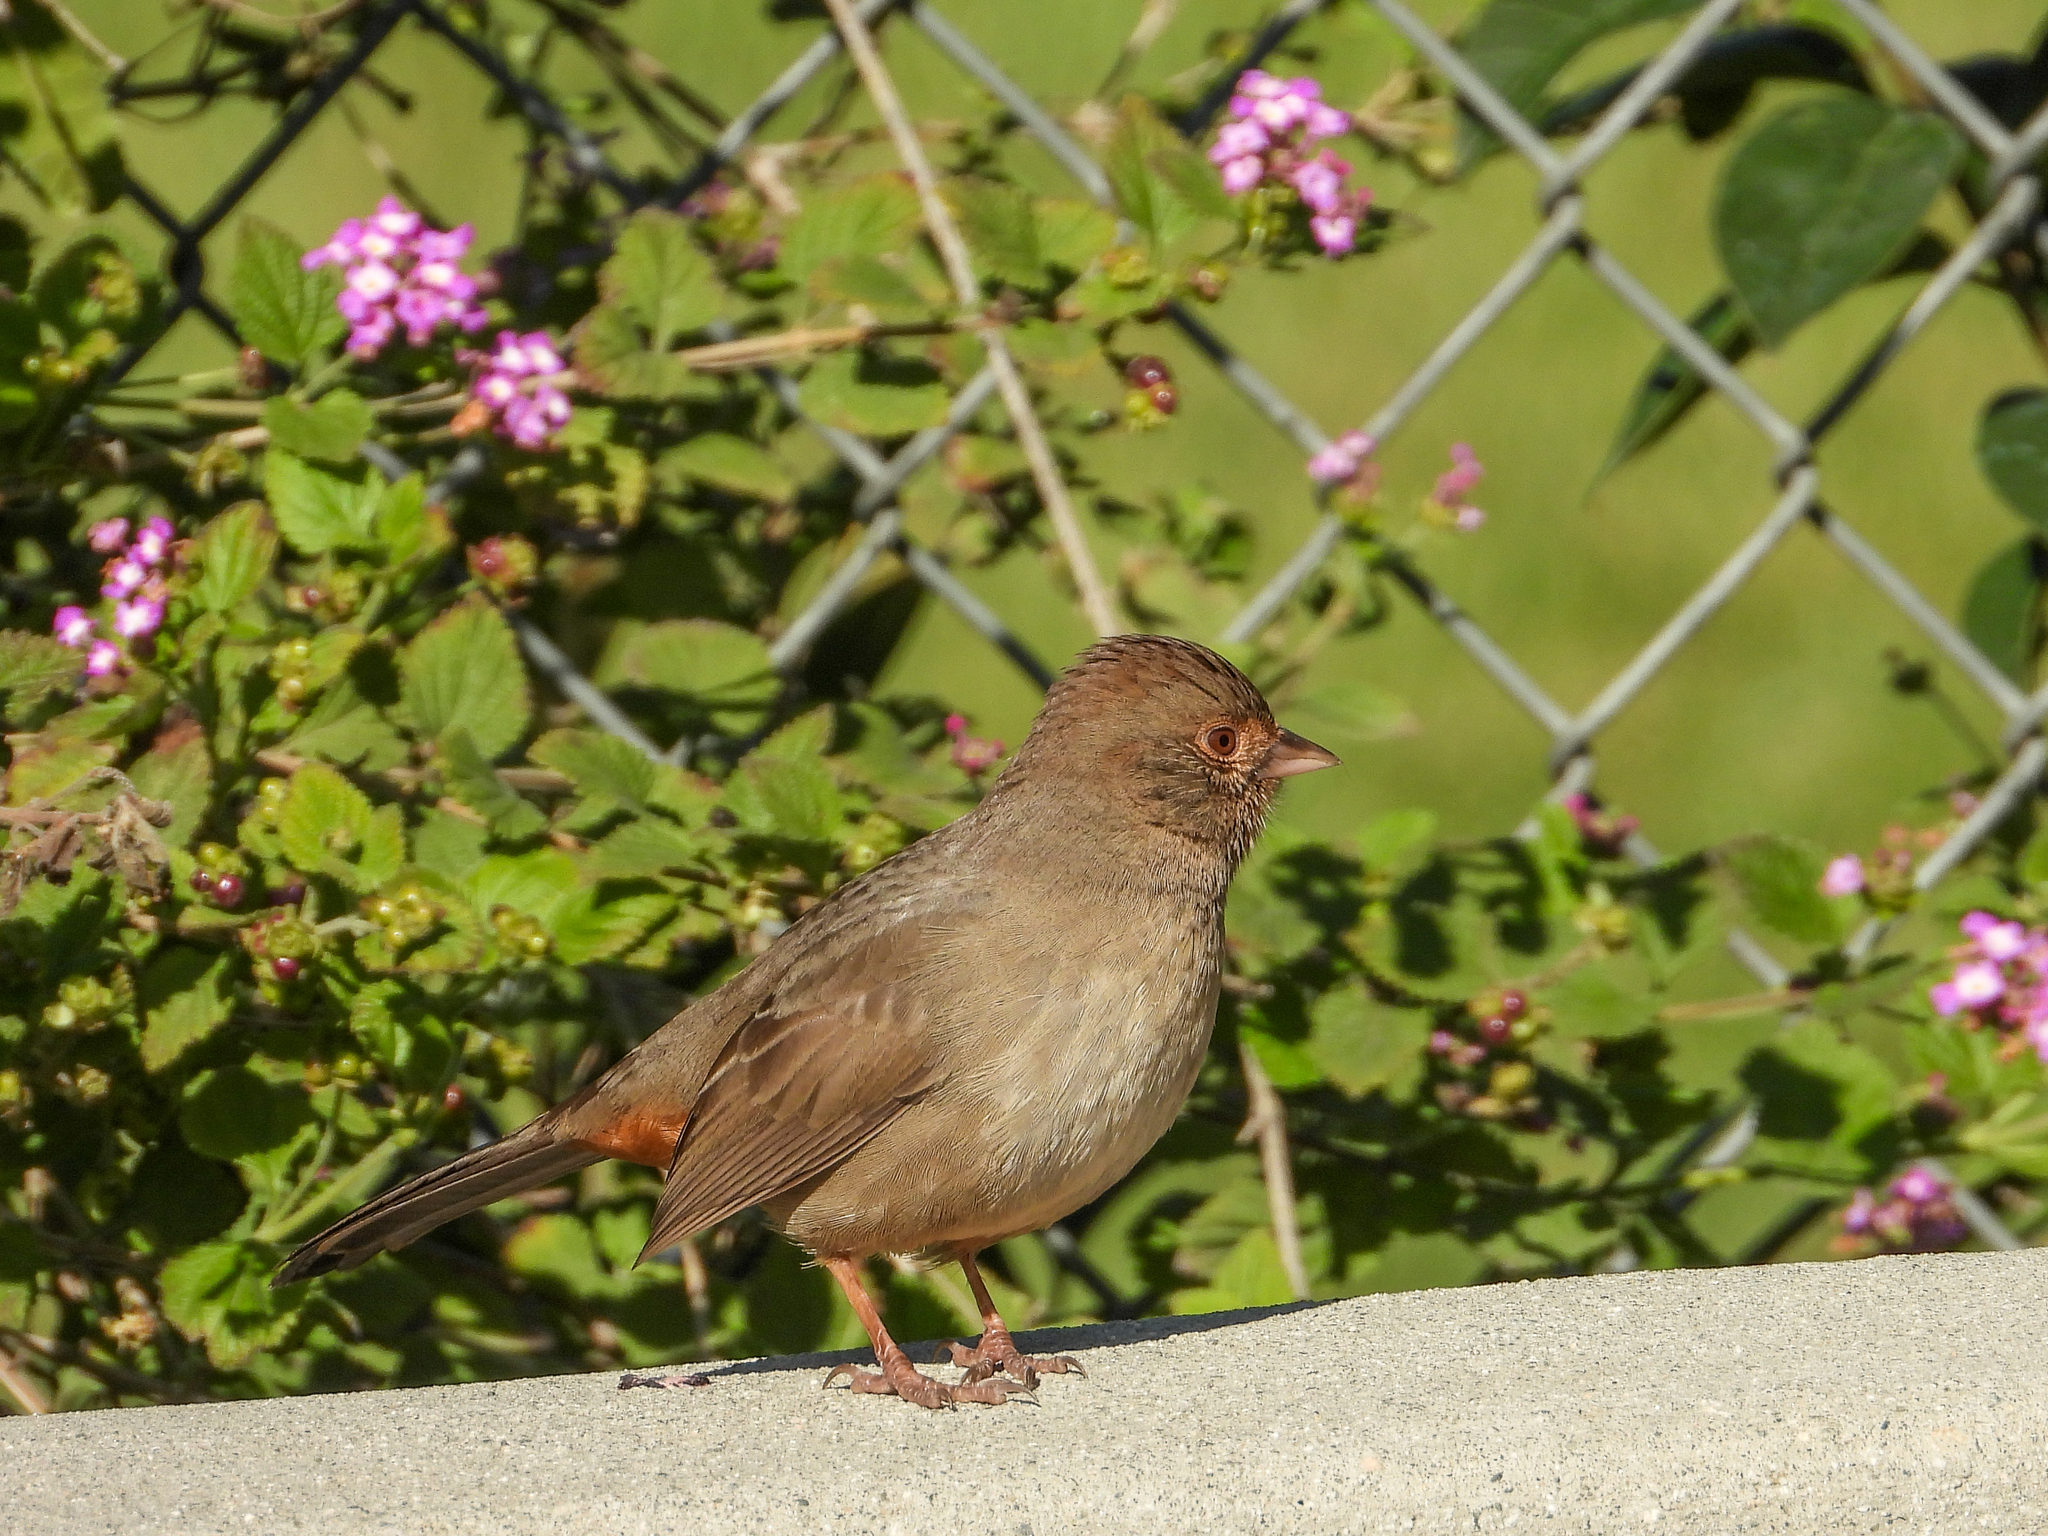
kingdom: Animalia
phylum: Chordata
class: Aves
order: Passeriformes
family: Passerellidae
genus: Melozone
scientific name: Melozone crissalis
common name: California towhee
